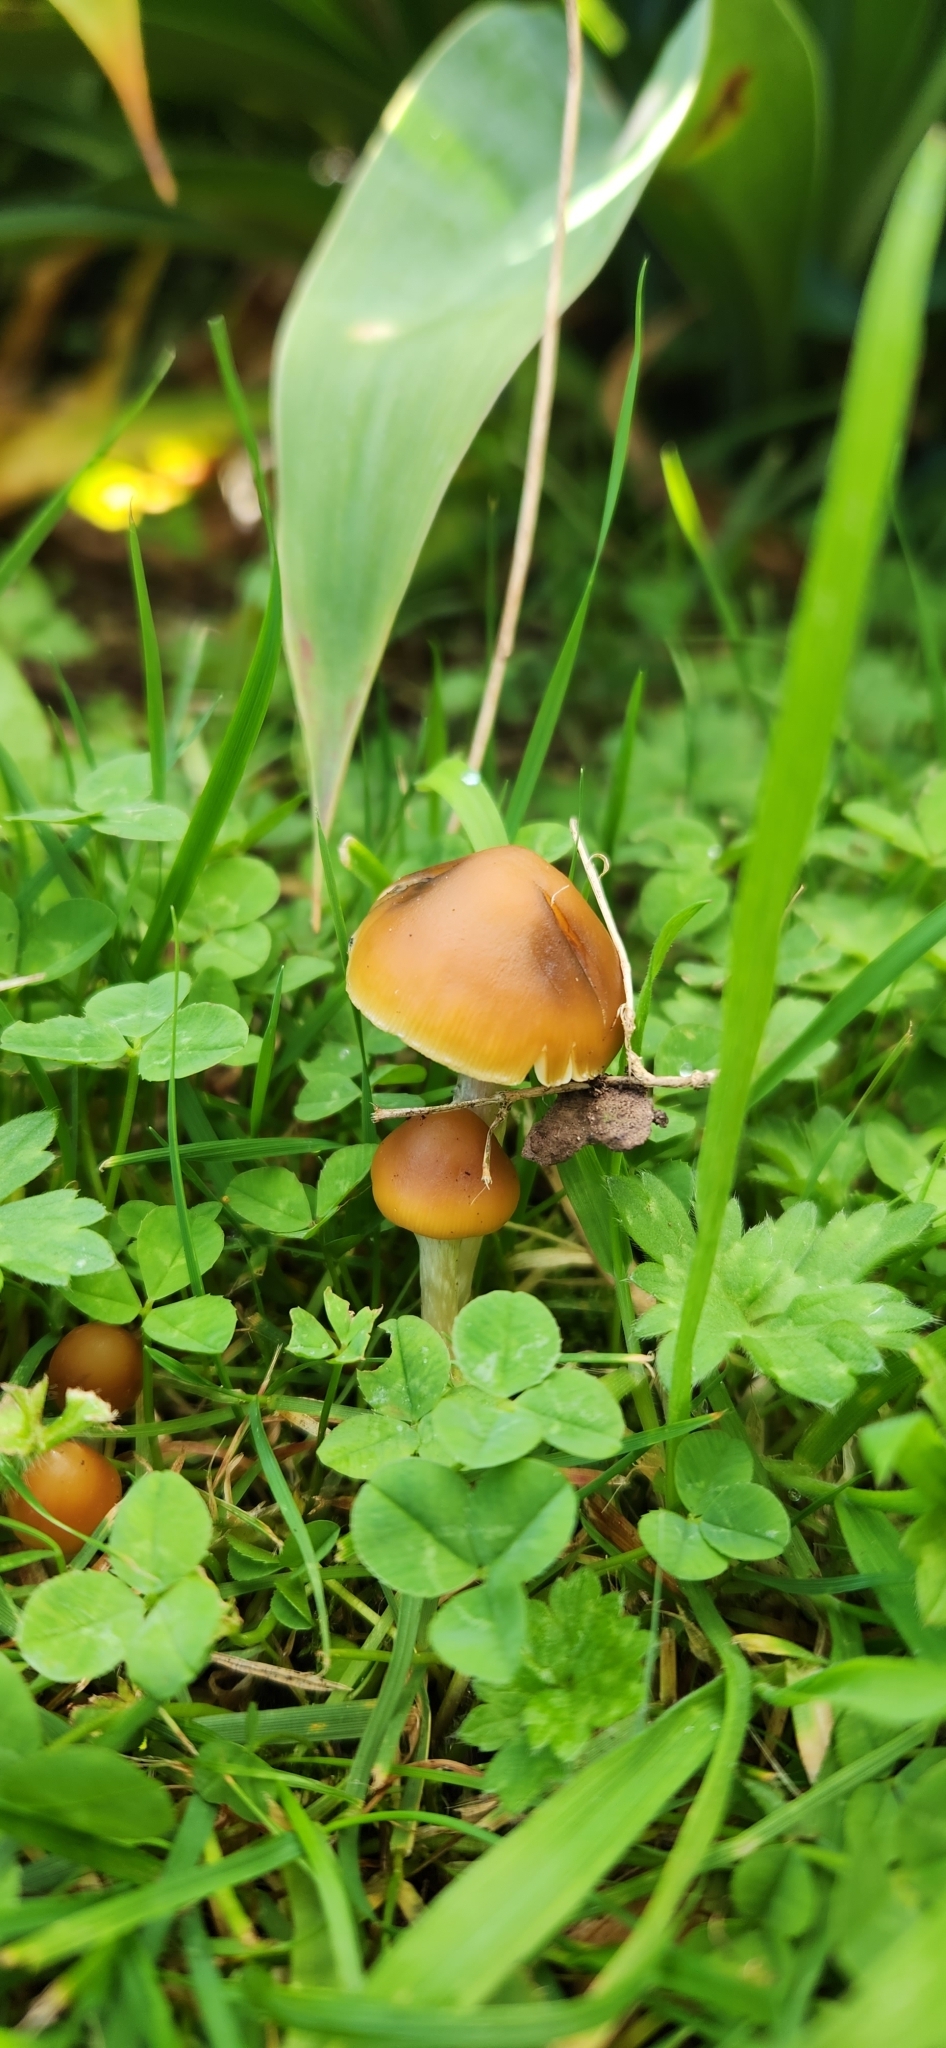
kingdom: Fungi
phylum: Basidiomycota
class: Agaricomycetes
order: Agaricales
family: Hymenogastraceae
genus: Psilocybe
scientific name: Psilocybe subaeruginosa
